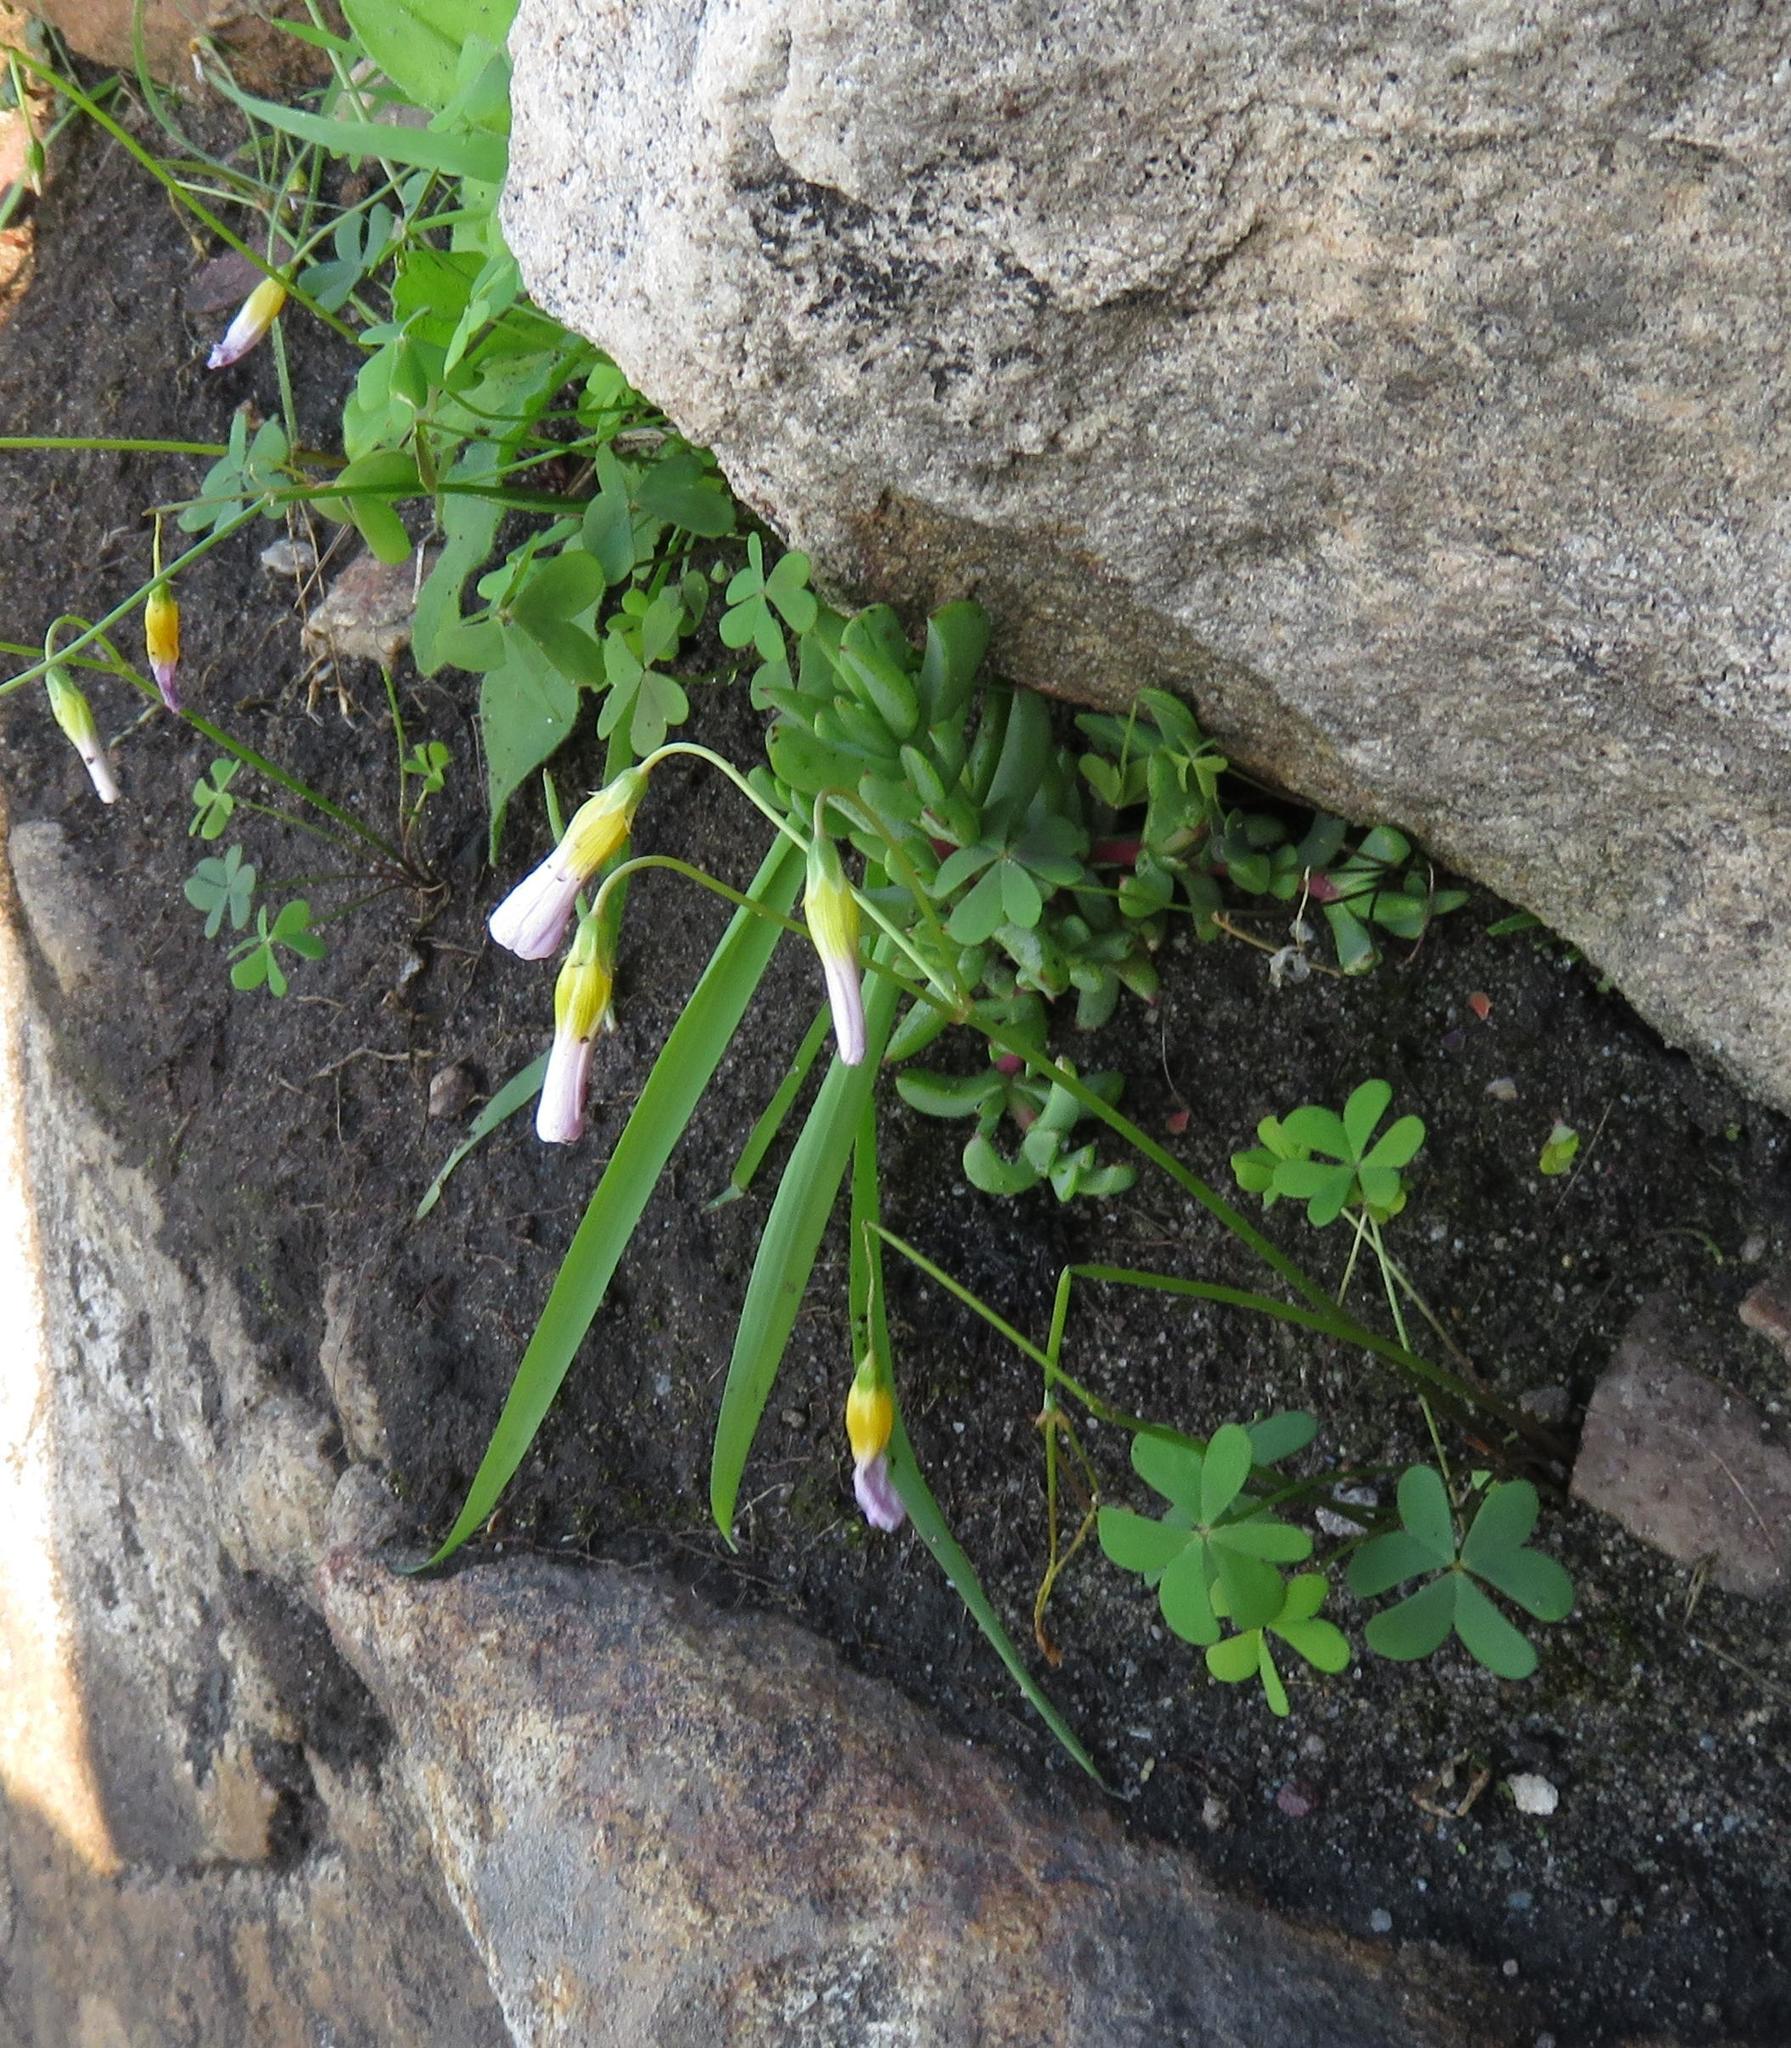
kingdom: Plantae
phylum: Tracheophyta
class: Magnoliopsida
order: Oxalidales
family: Oxalidaceae
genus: Oxalis
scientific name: Oxalis caprina
